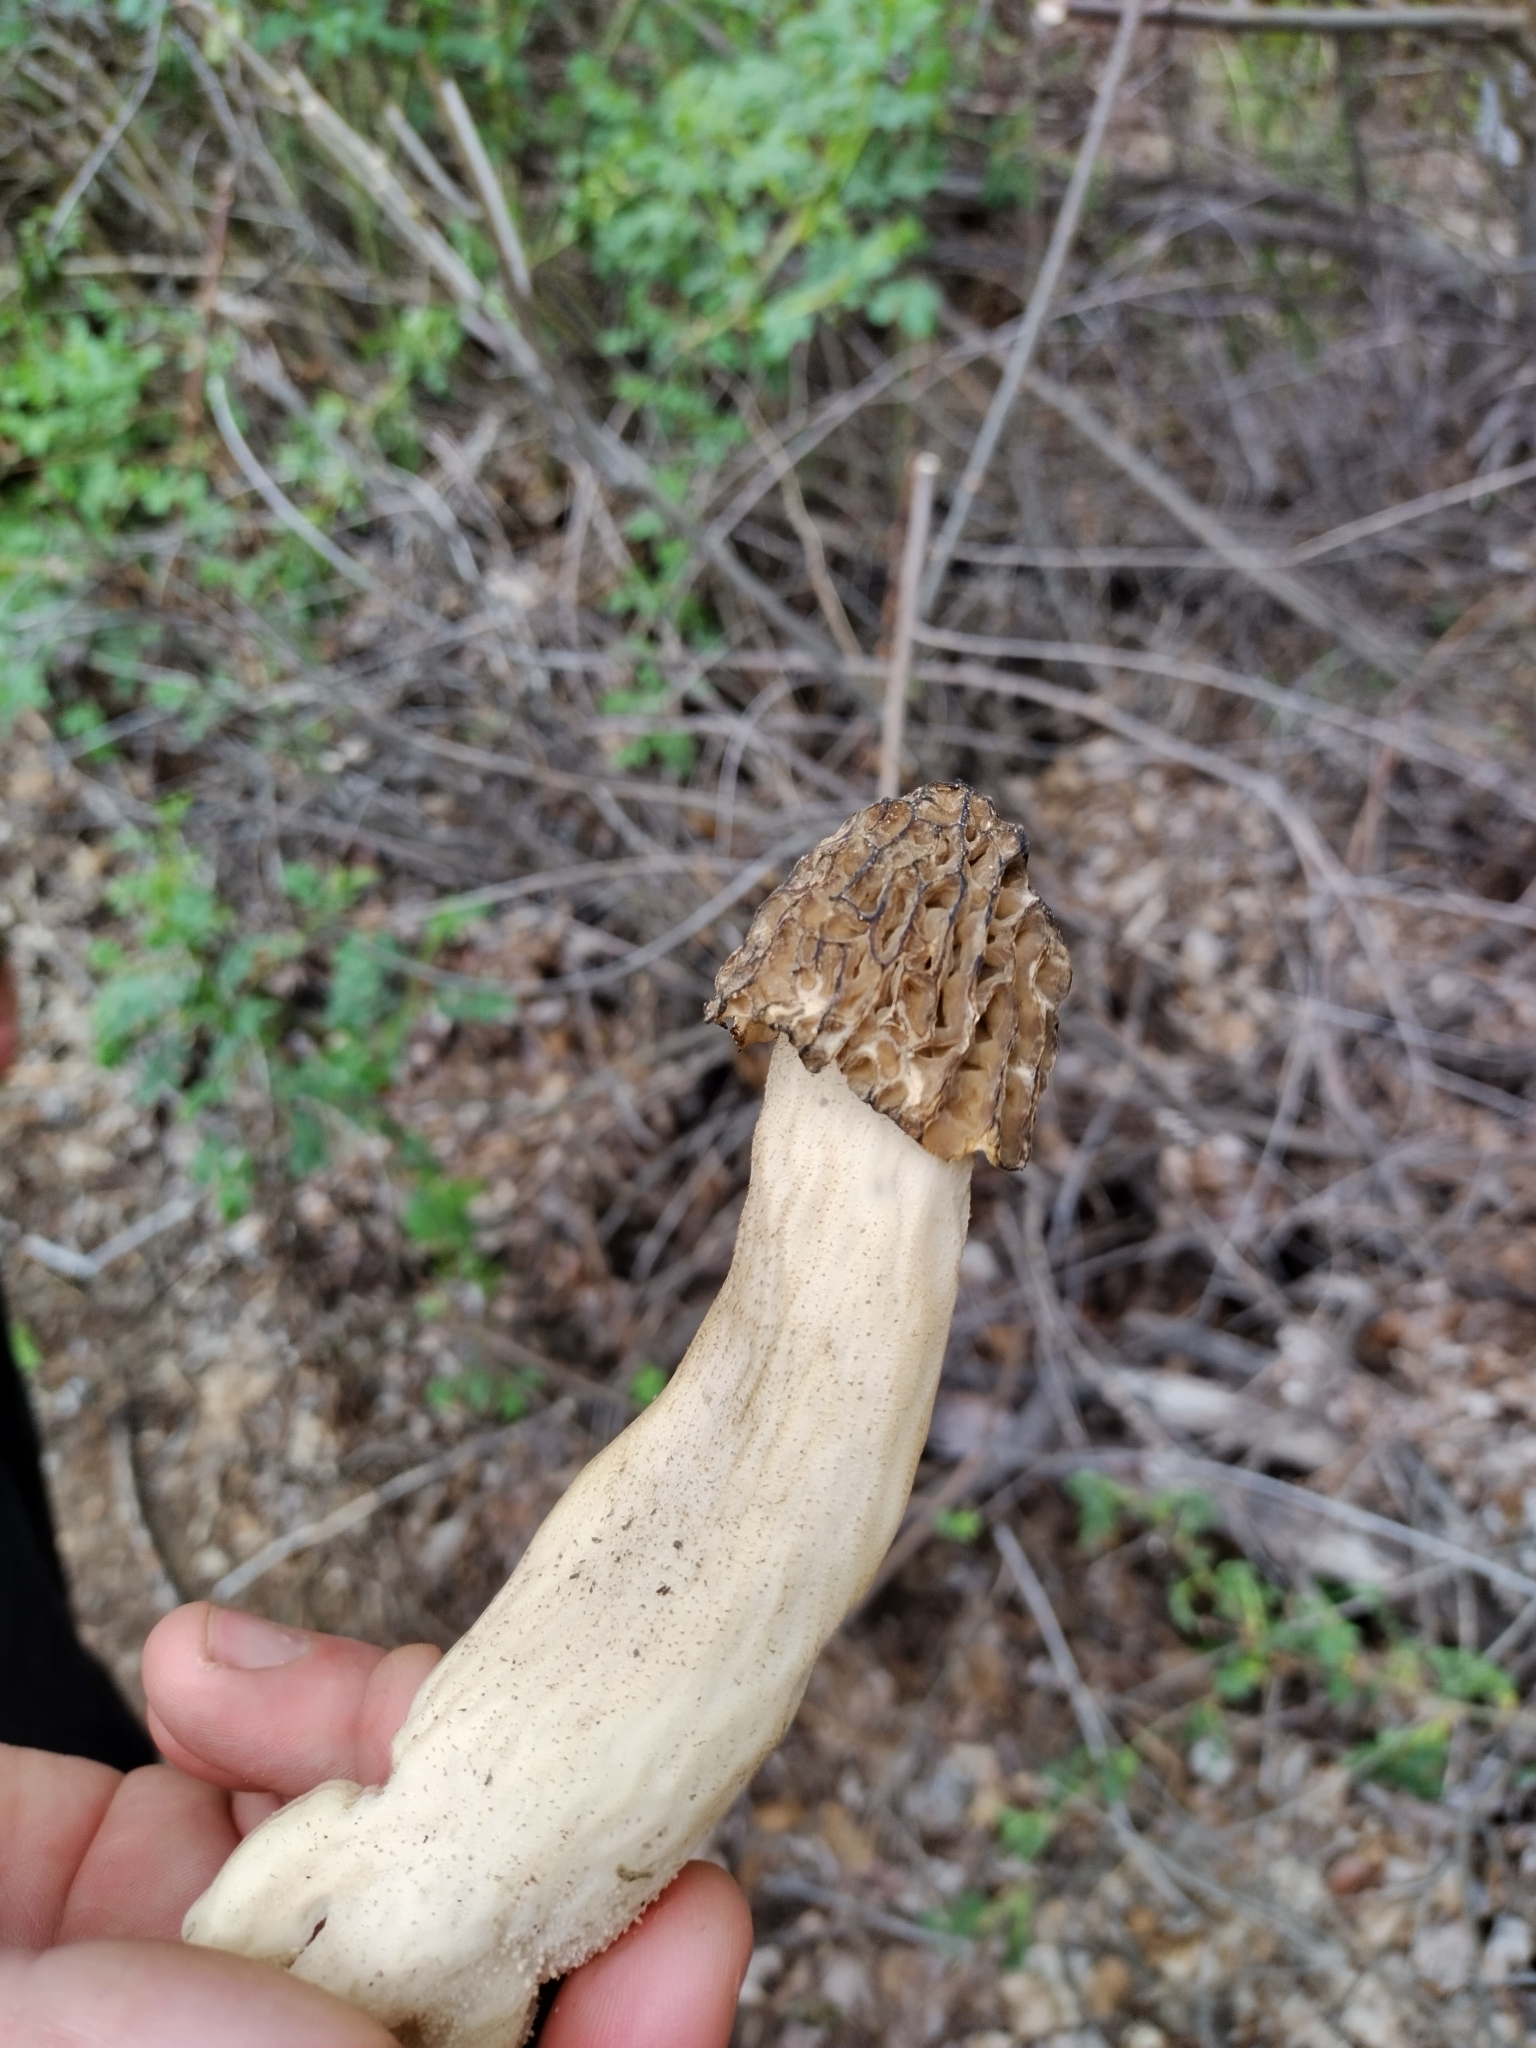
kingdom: Fungi
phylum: Ascomycota
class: Pezizomycetes
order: Pezizales
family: Morchellaceae
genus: Verpa
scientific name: Verpa bohemica
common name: Wrinkled thimble morel
